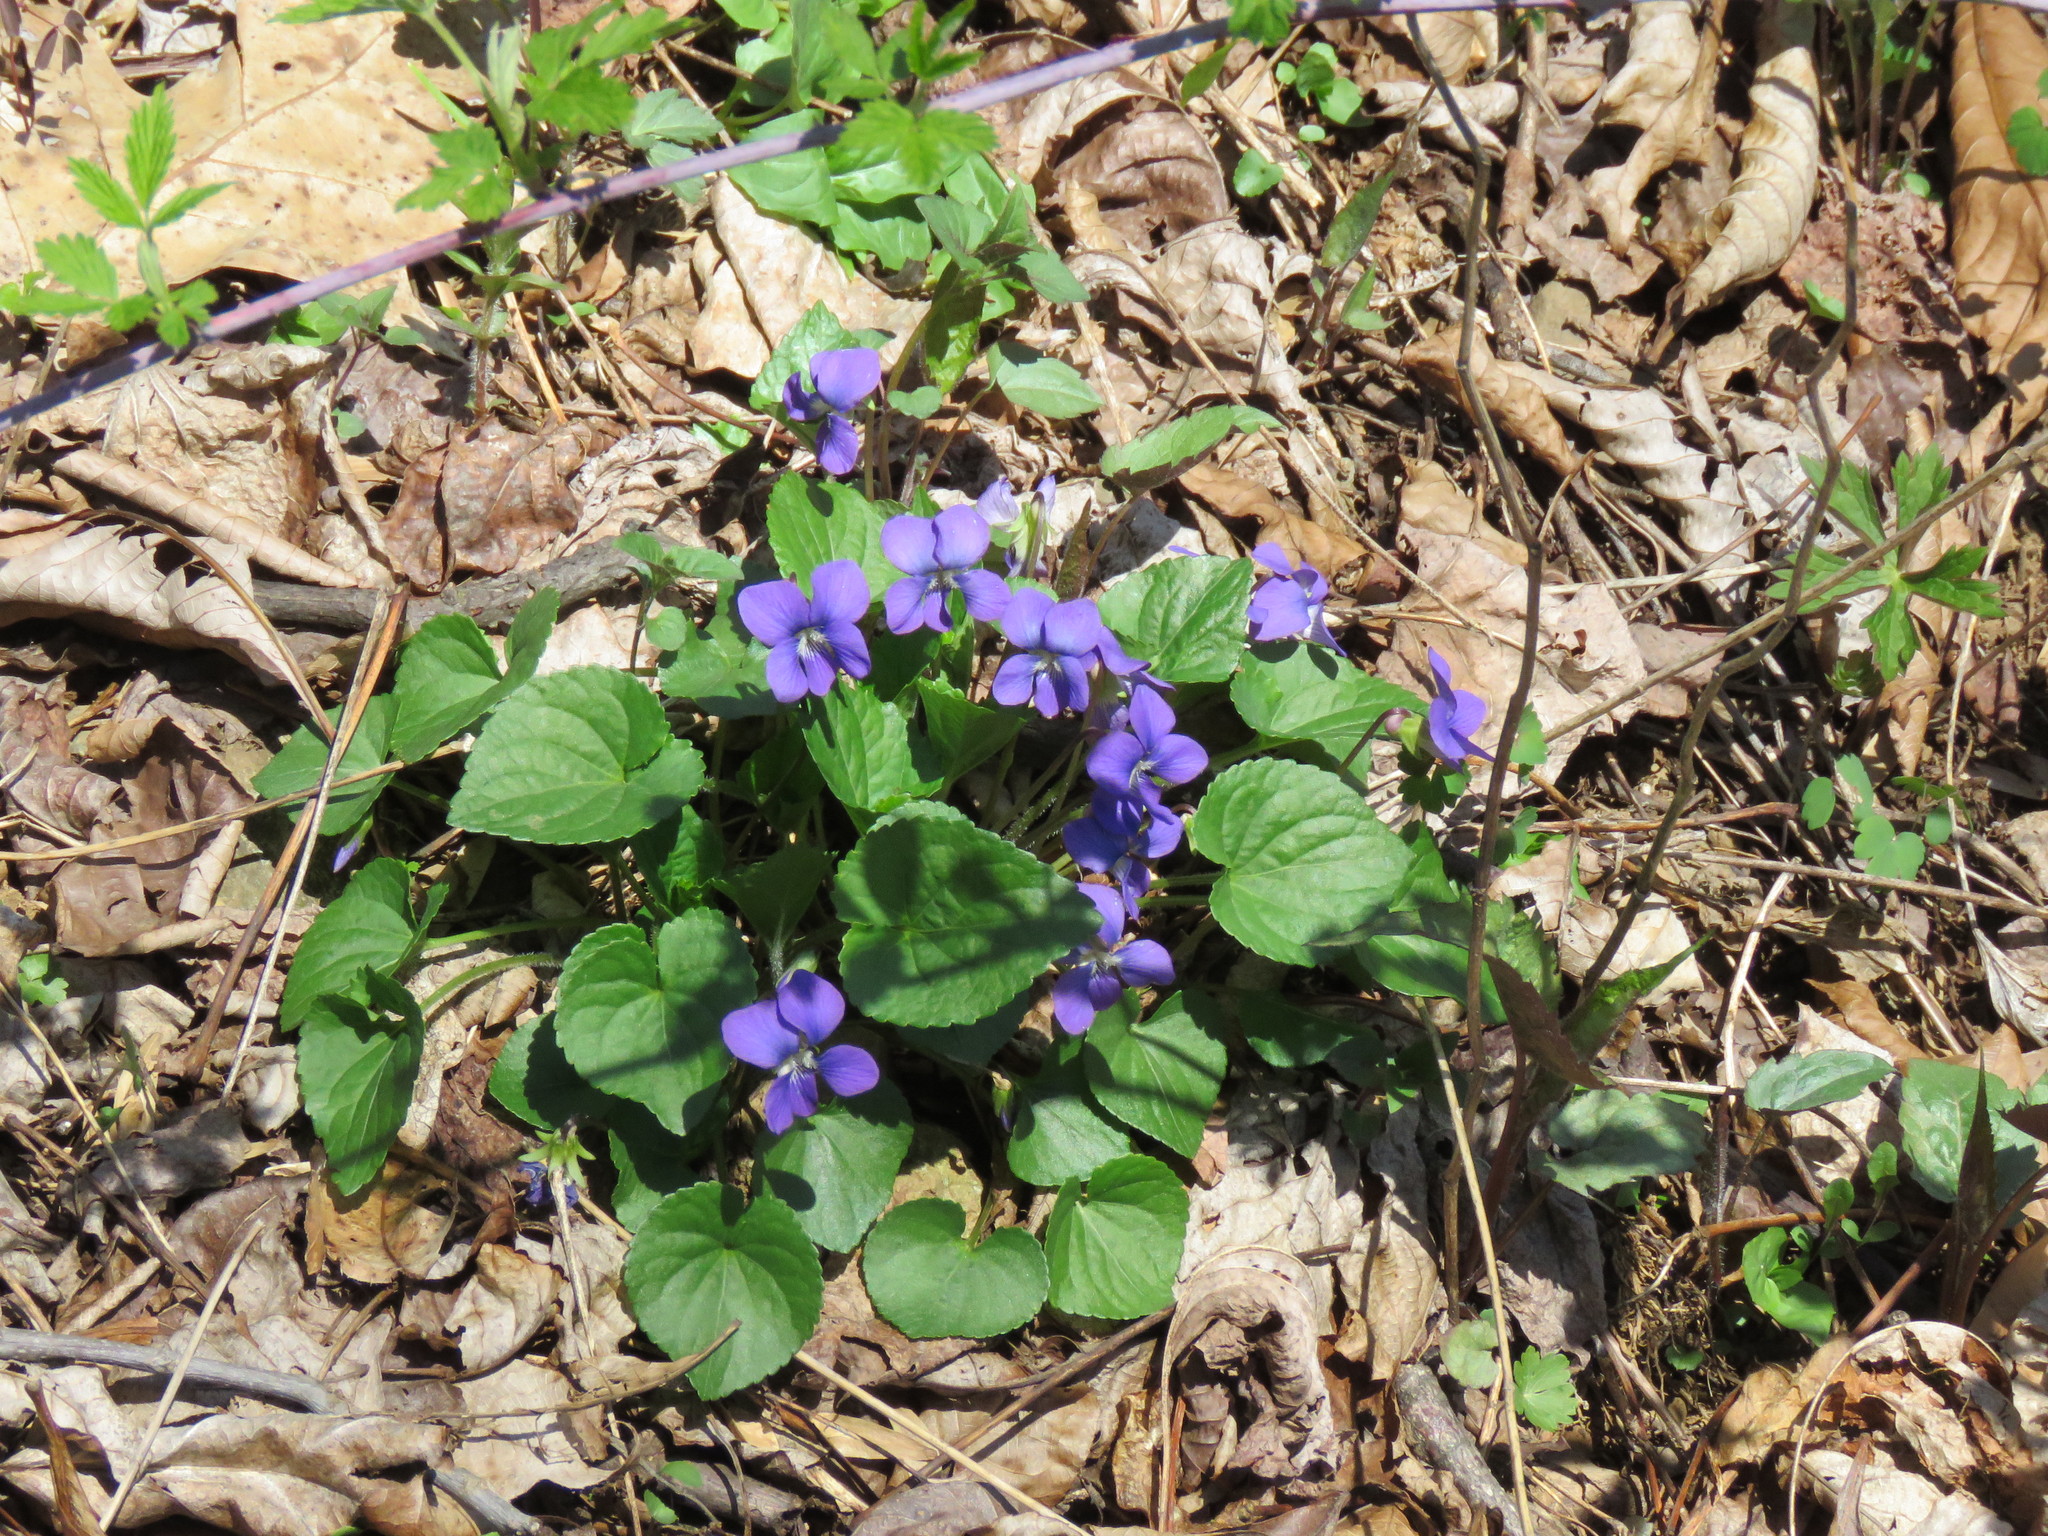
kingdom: Plantae
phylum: Tracheophyta
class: Magnoliopsida
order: Malpighiales
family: Violaceae
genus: Viola
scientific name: Viola sororia
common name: Dooryard violet
